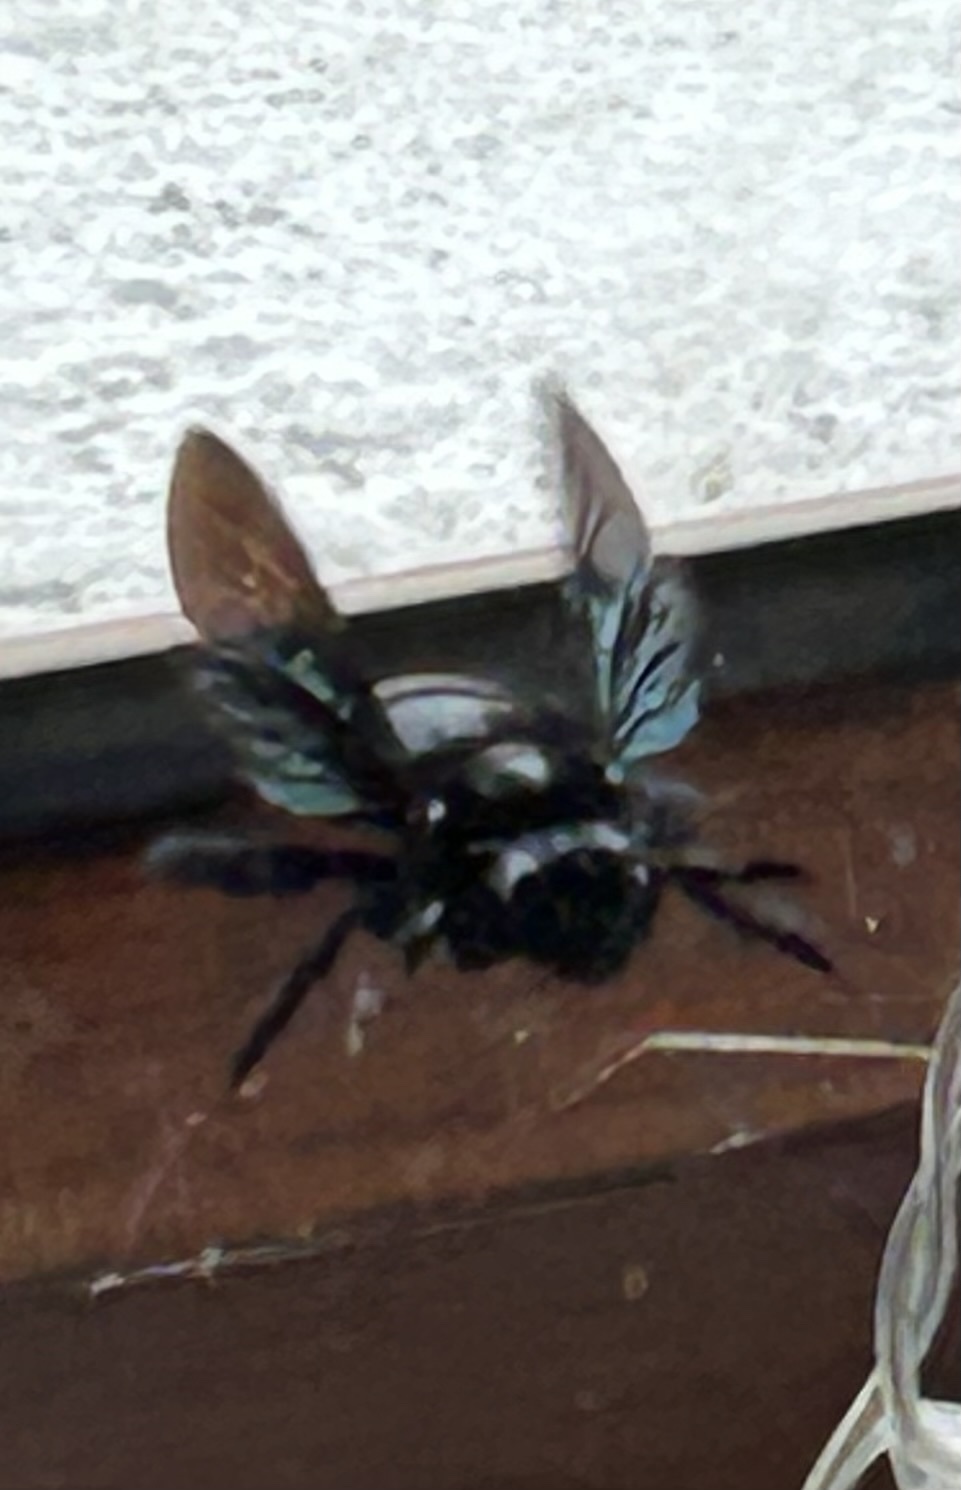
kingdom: Animalia
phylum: Arthropoda
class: Insecta
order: Hymenoptera
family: Apidae
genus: Xylocopa
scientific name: Xylocopa darwini
